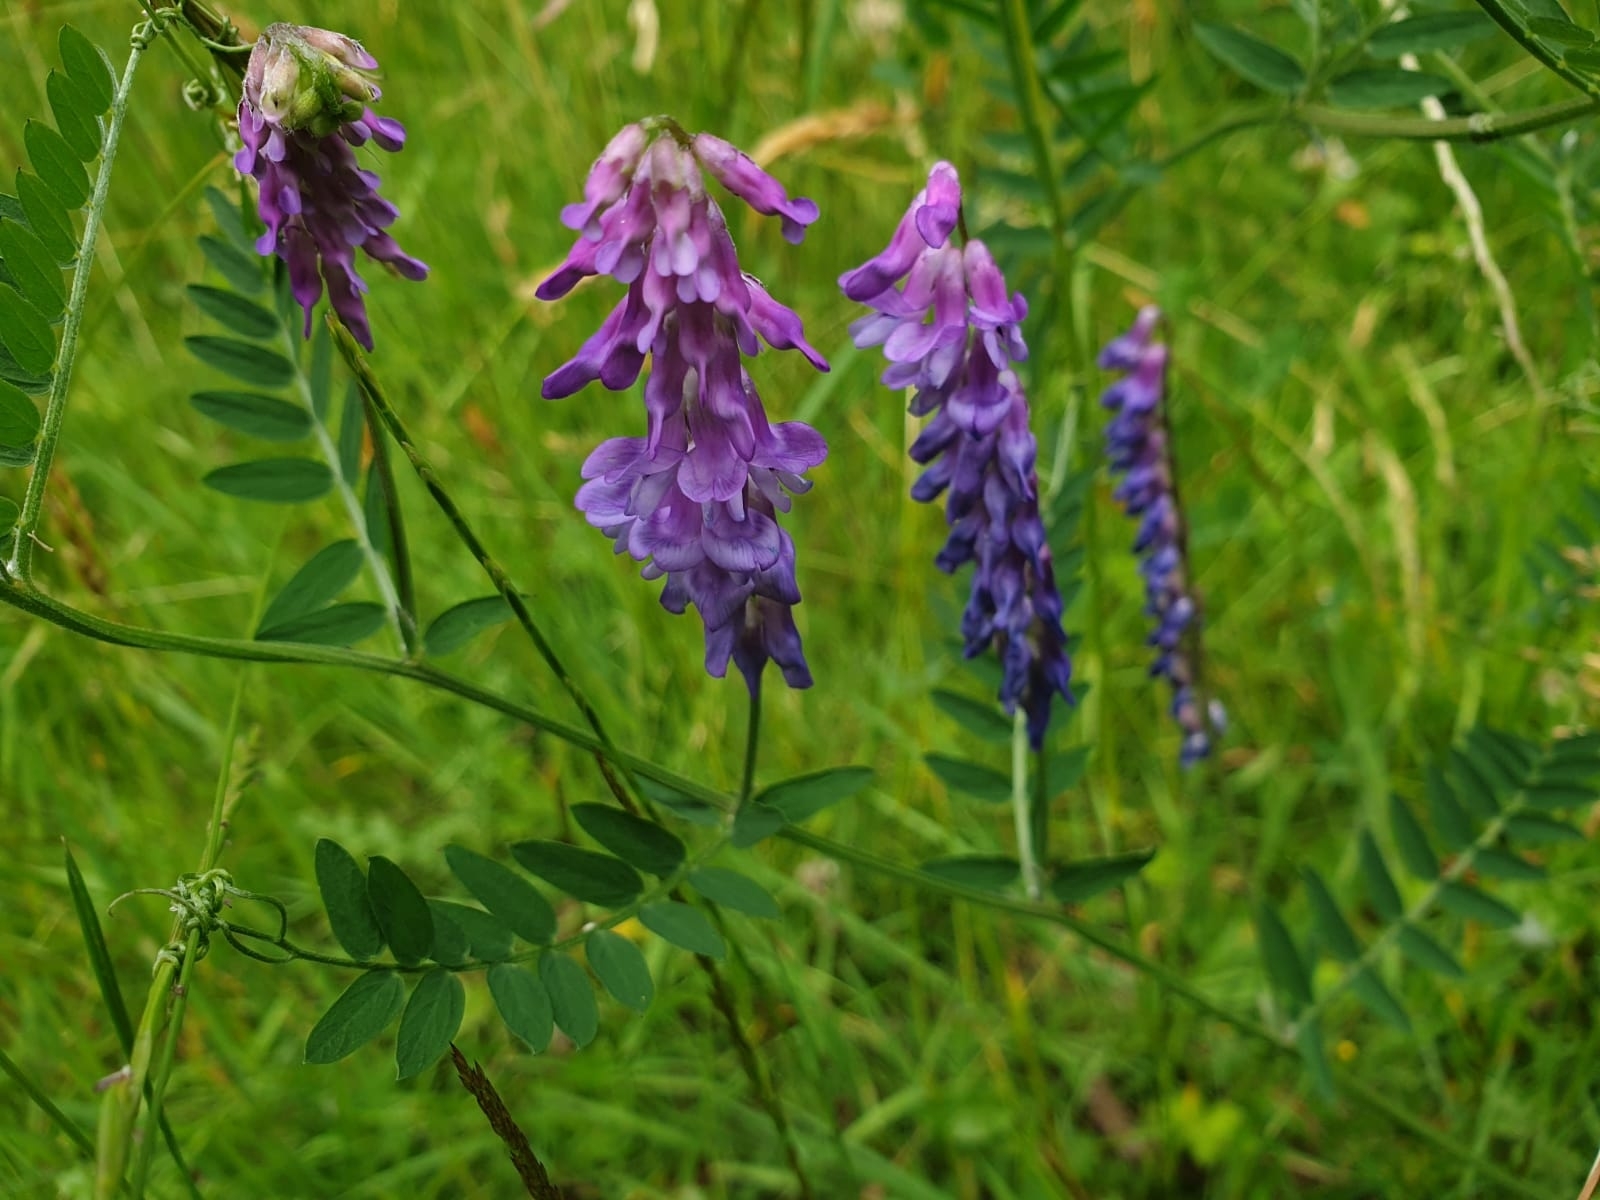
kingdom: Plantae
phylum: Tracheophyta
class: Magnoliopsida
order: Fabales
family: Fabaceae
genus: Vicia
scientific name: Vicia cracca
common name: Bird vetch
